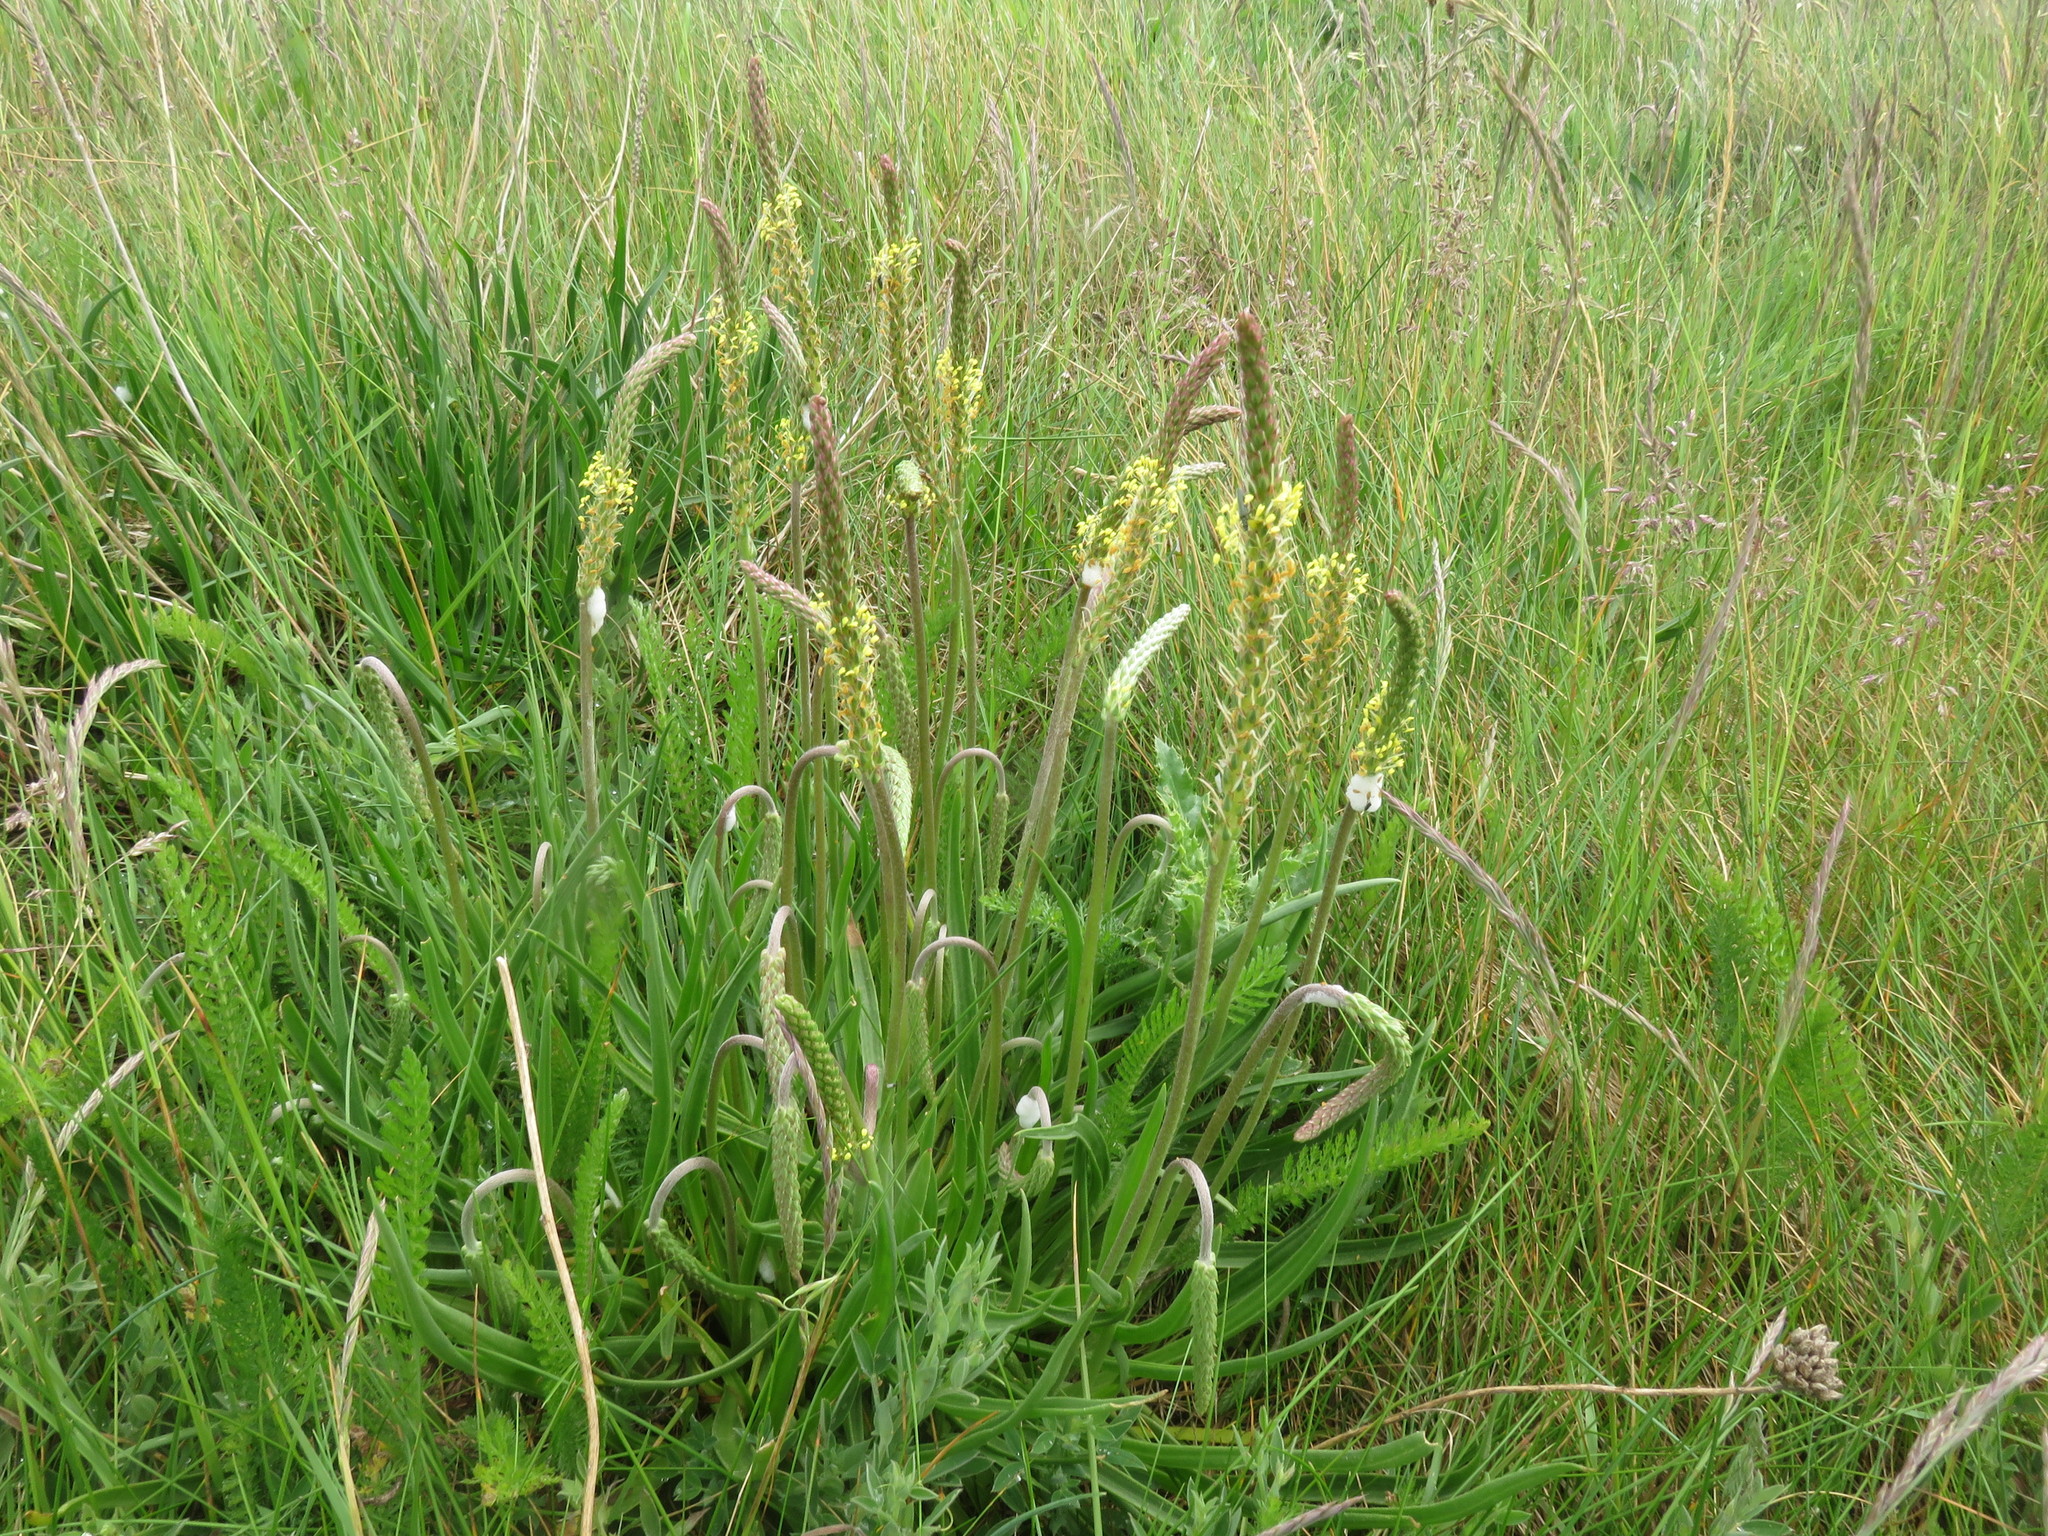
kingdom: Plantae
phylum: Tracheophyta
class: Magnoliopsida
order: Lamiales
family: Plantaginaceae
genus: Plantago
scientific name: Plantago maritima
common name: Sea plantain
